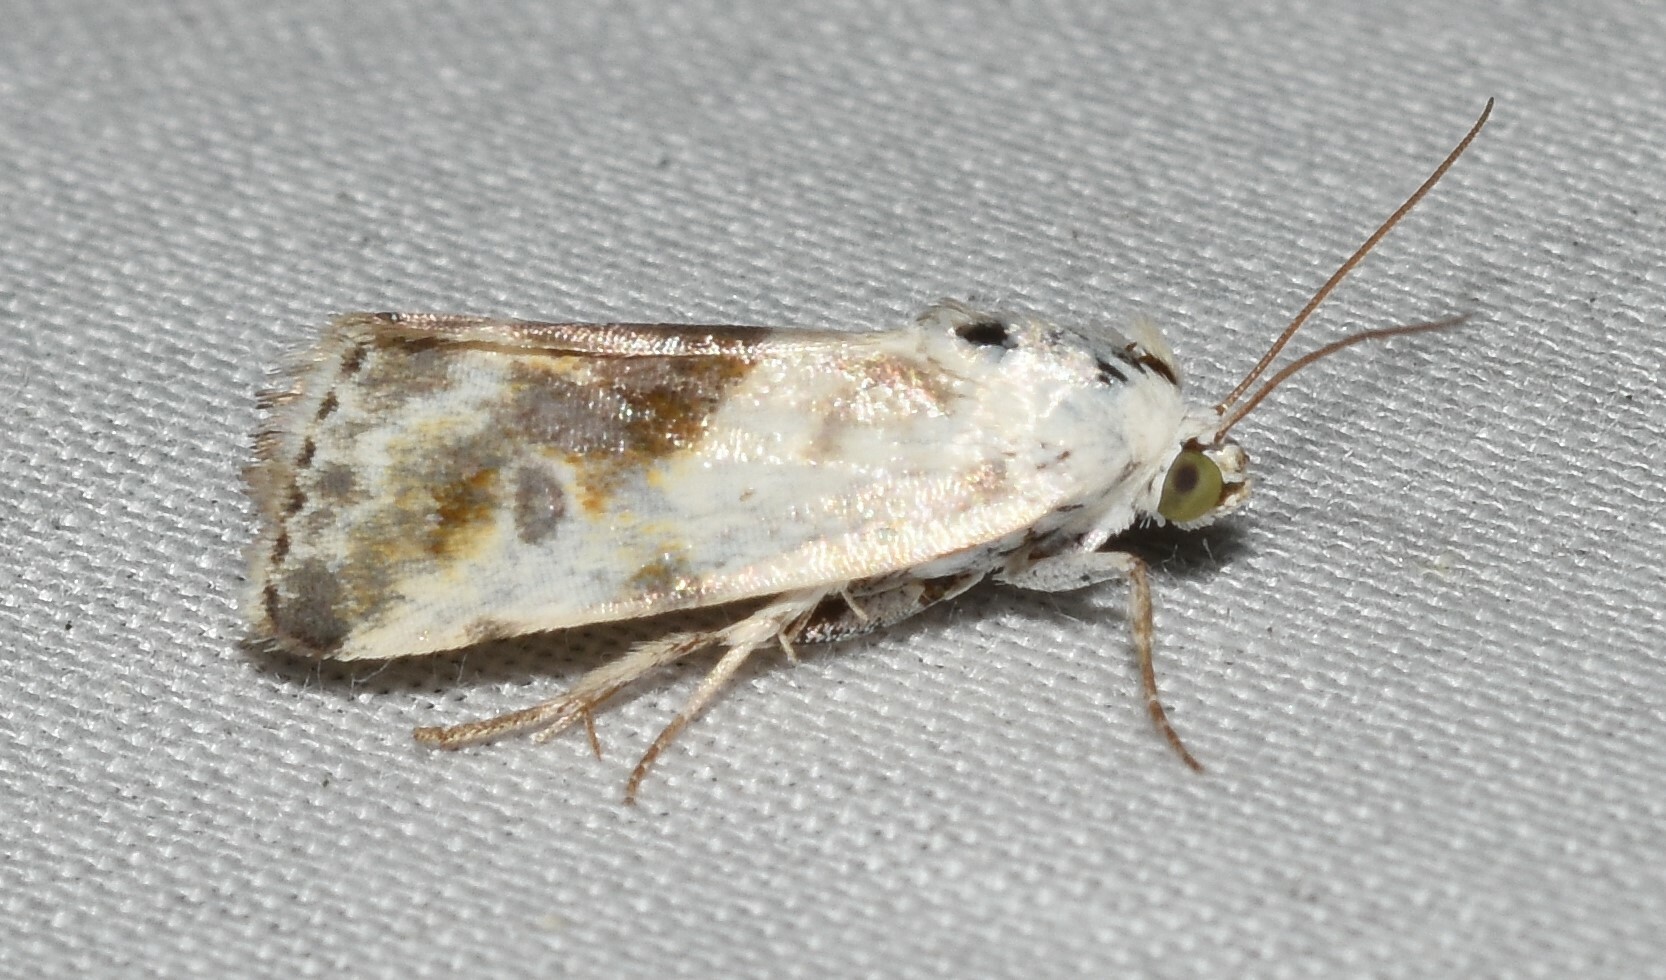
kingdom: Animalia
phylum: Arthropoda
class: Insecta
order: Lepidoptera
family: Noctuidae
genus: Acontia
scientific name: Acontia candefacta
